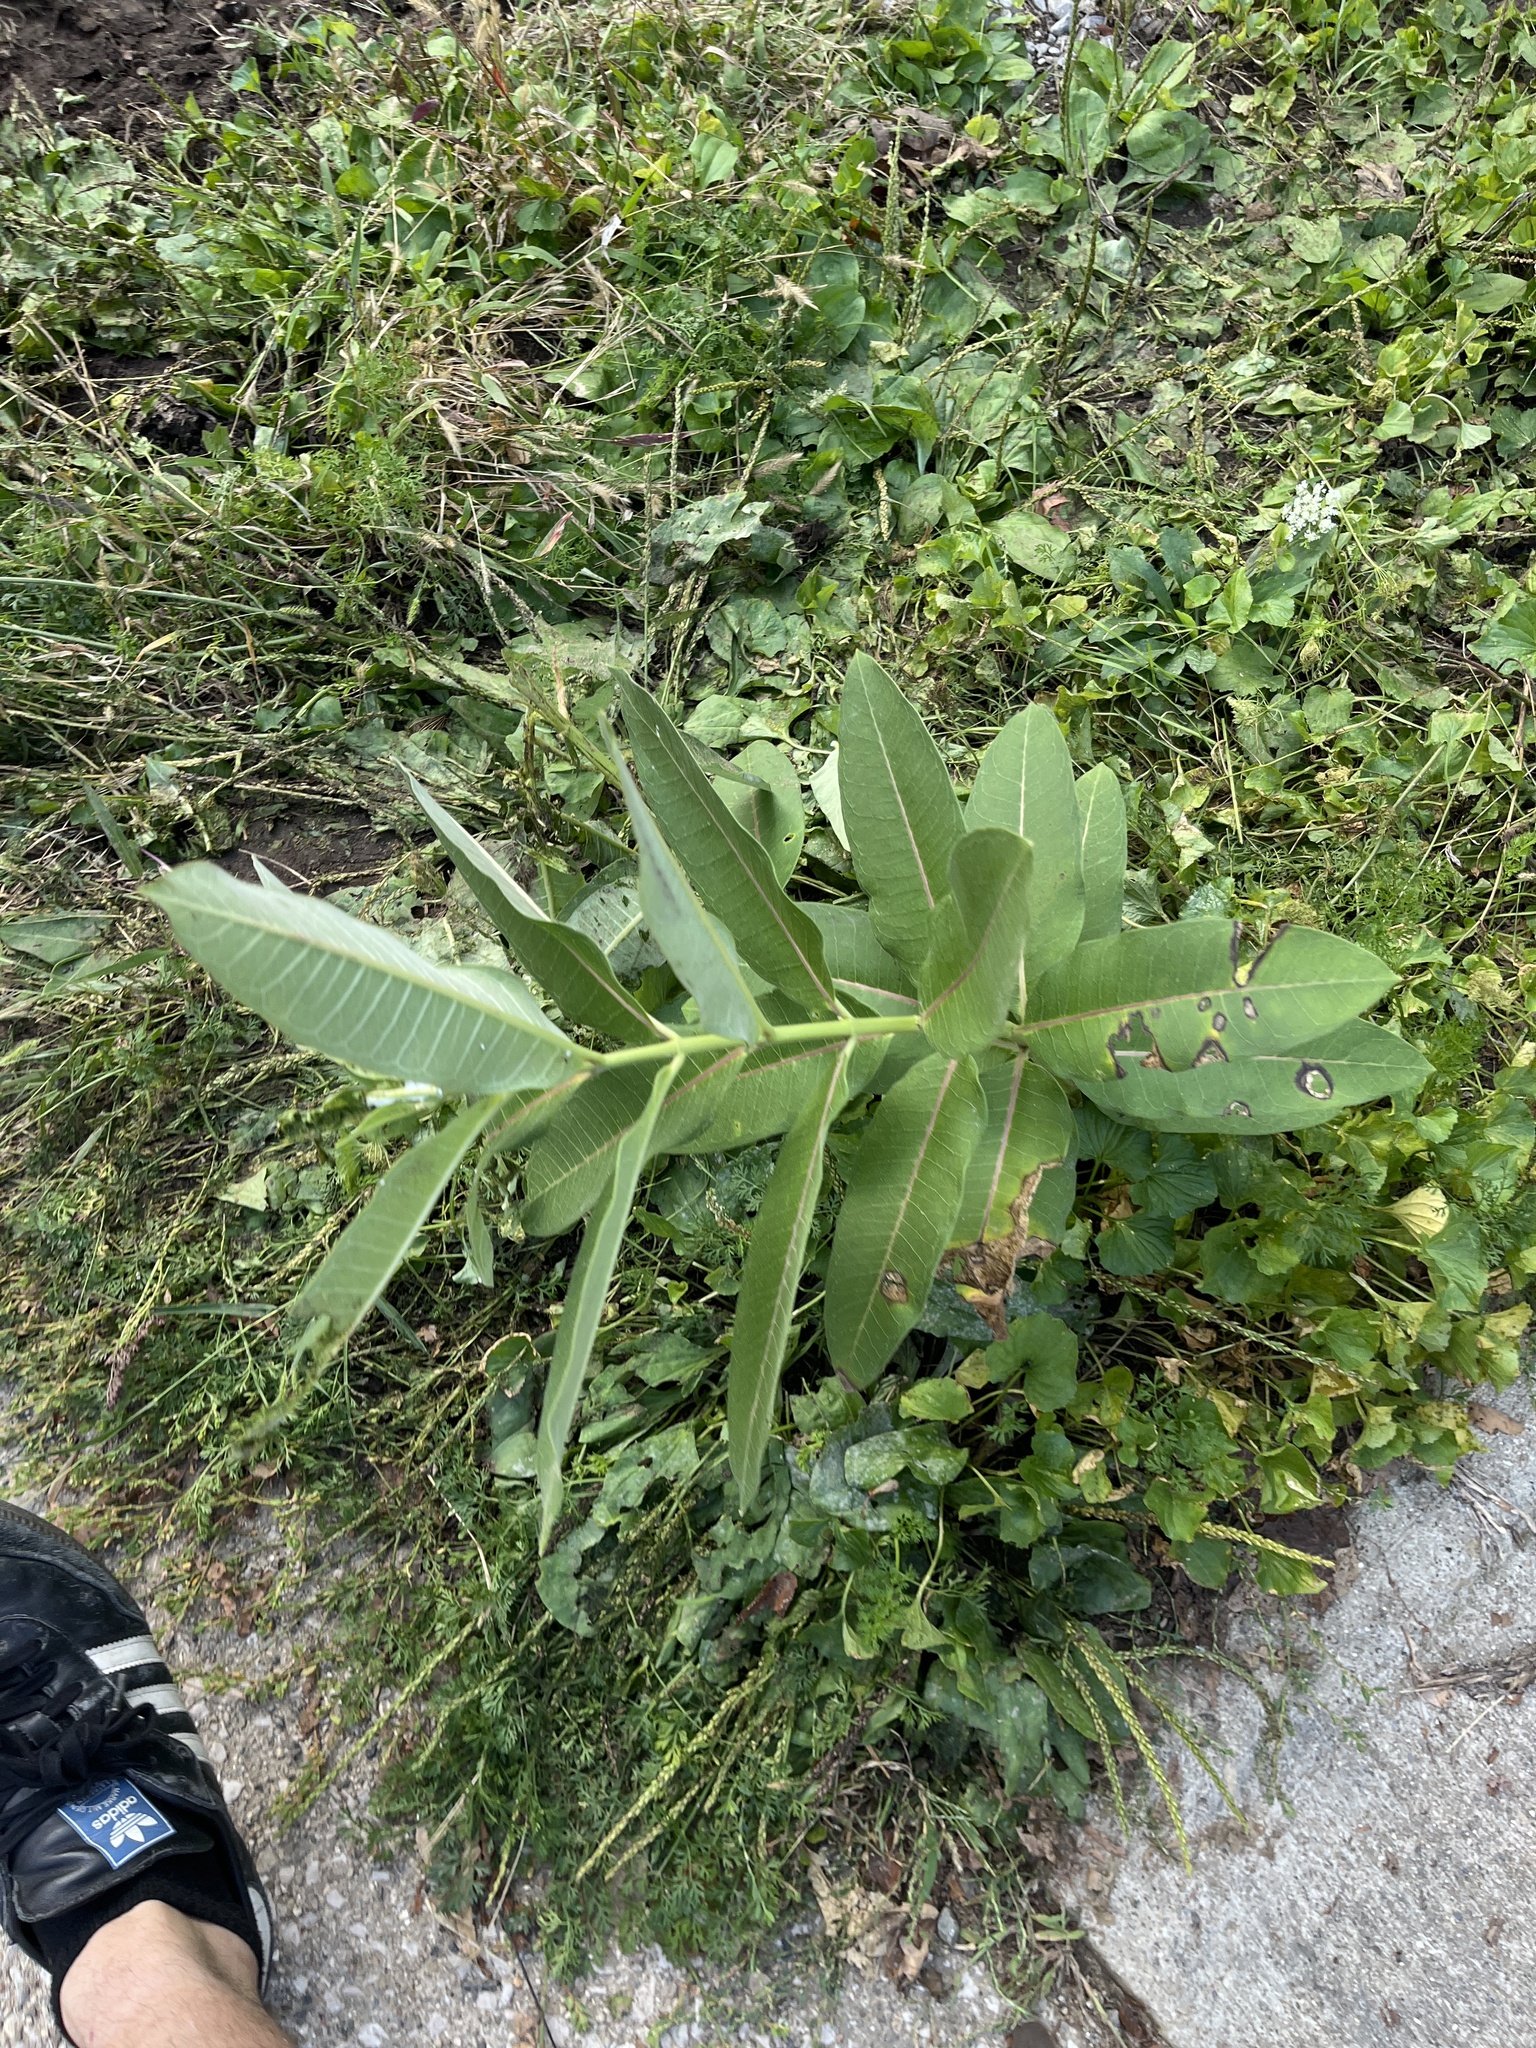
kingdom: Plantae
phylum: Tracheophyta
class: Magnoliopsida
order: Gentianales
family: Apocynaceae
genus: Asclepias
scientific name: Asclepias syriaca
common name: Common milkweed
